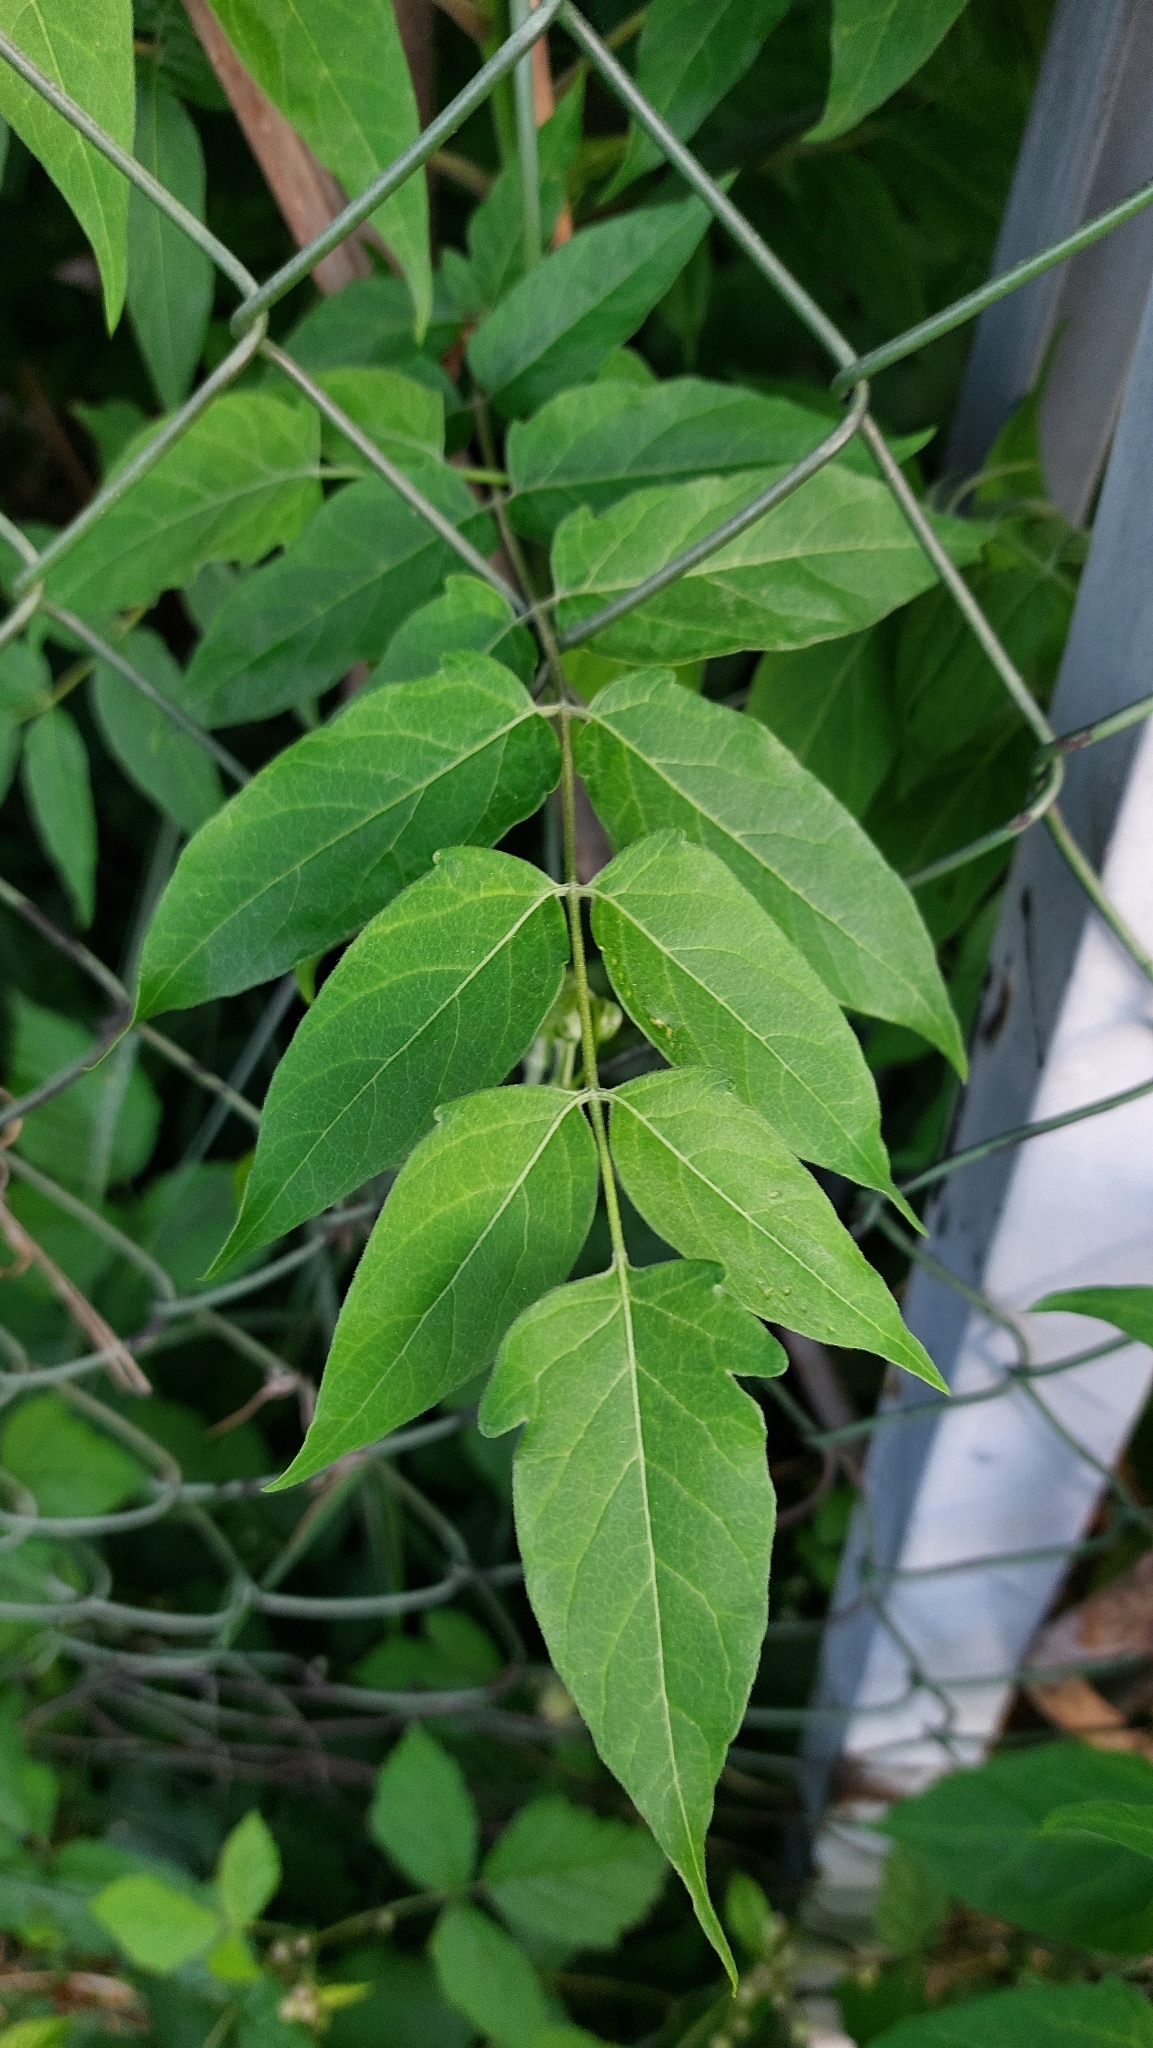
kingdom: Plantae
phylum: Tracheophyta
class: Magnoliopsida
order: Sapindales
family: Simaroubaceae
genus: Ailanthus
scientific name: Ailanthus altissima
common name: Tree-of-heaven
